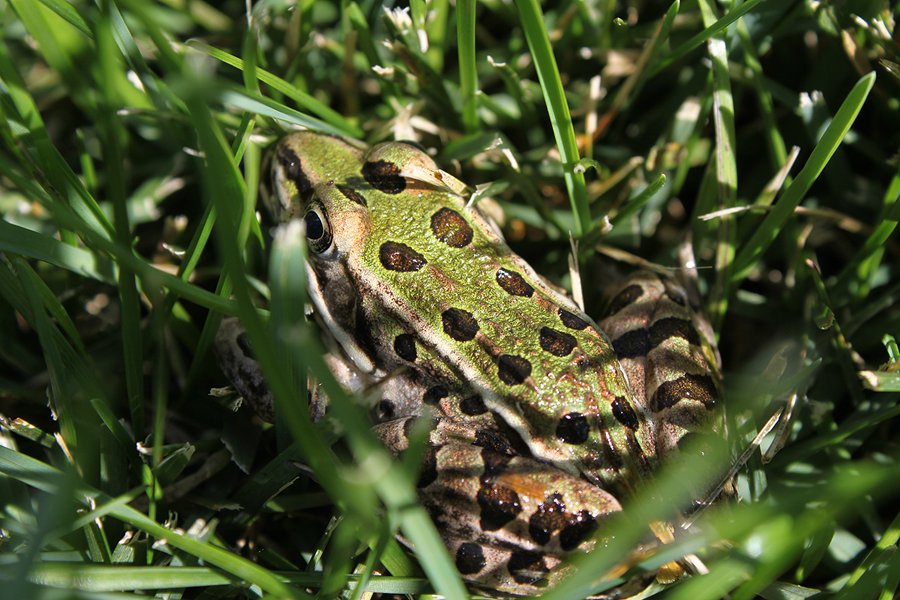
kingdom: Animalia
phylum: Chordata
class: Amphibia
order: Anura
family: Ranidae
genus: Lithobates
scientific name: Lithobates pipiens
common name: Northern leopard frog
